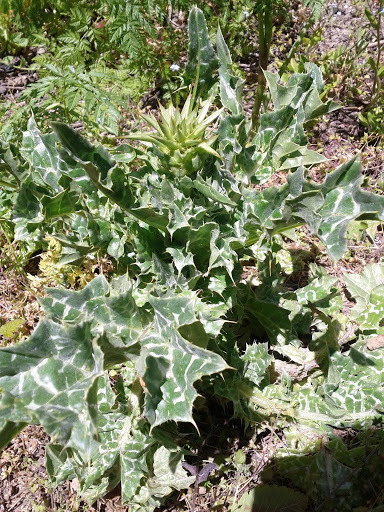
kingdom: Plantae
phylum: Tracheophyta
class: Magnoliopsida
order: Asterales
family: Asteraceae
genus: Silybum
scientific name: Silybum marianum
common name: Milk thistle
